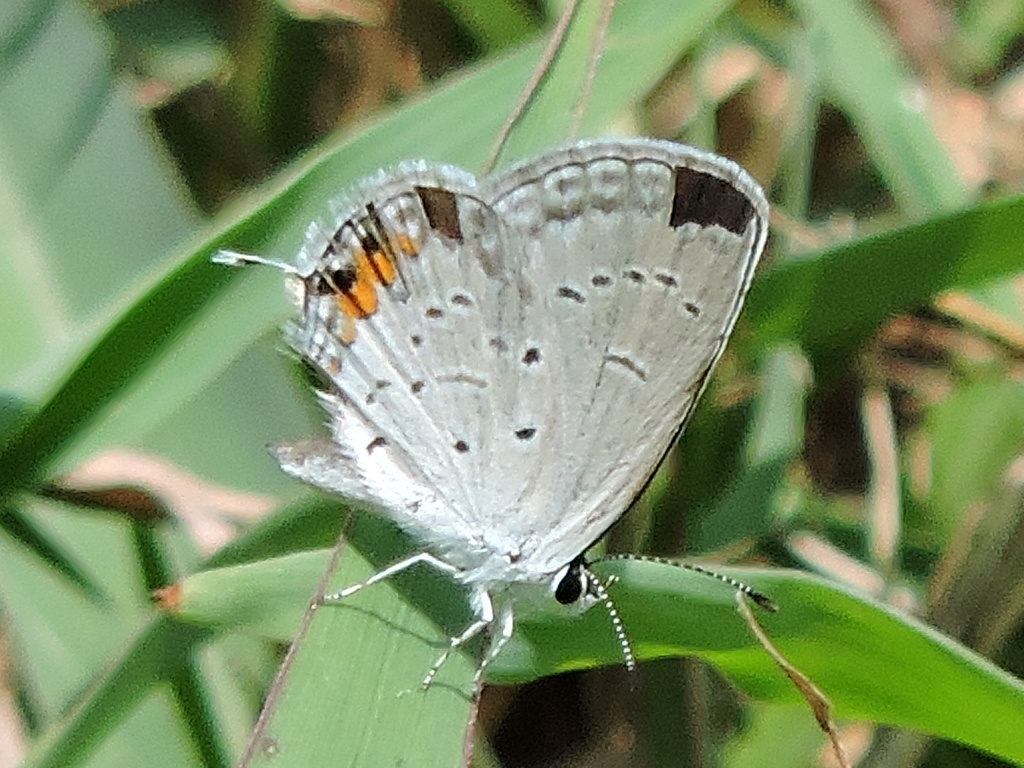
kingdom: Animalia
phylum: Arthropoda
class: Insecta
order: Lepidoptera
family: Lycaenidae
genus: Elkalyce
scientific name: Elkalyce comyntas
